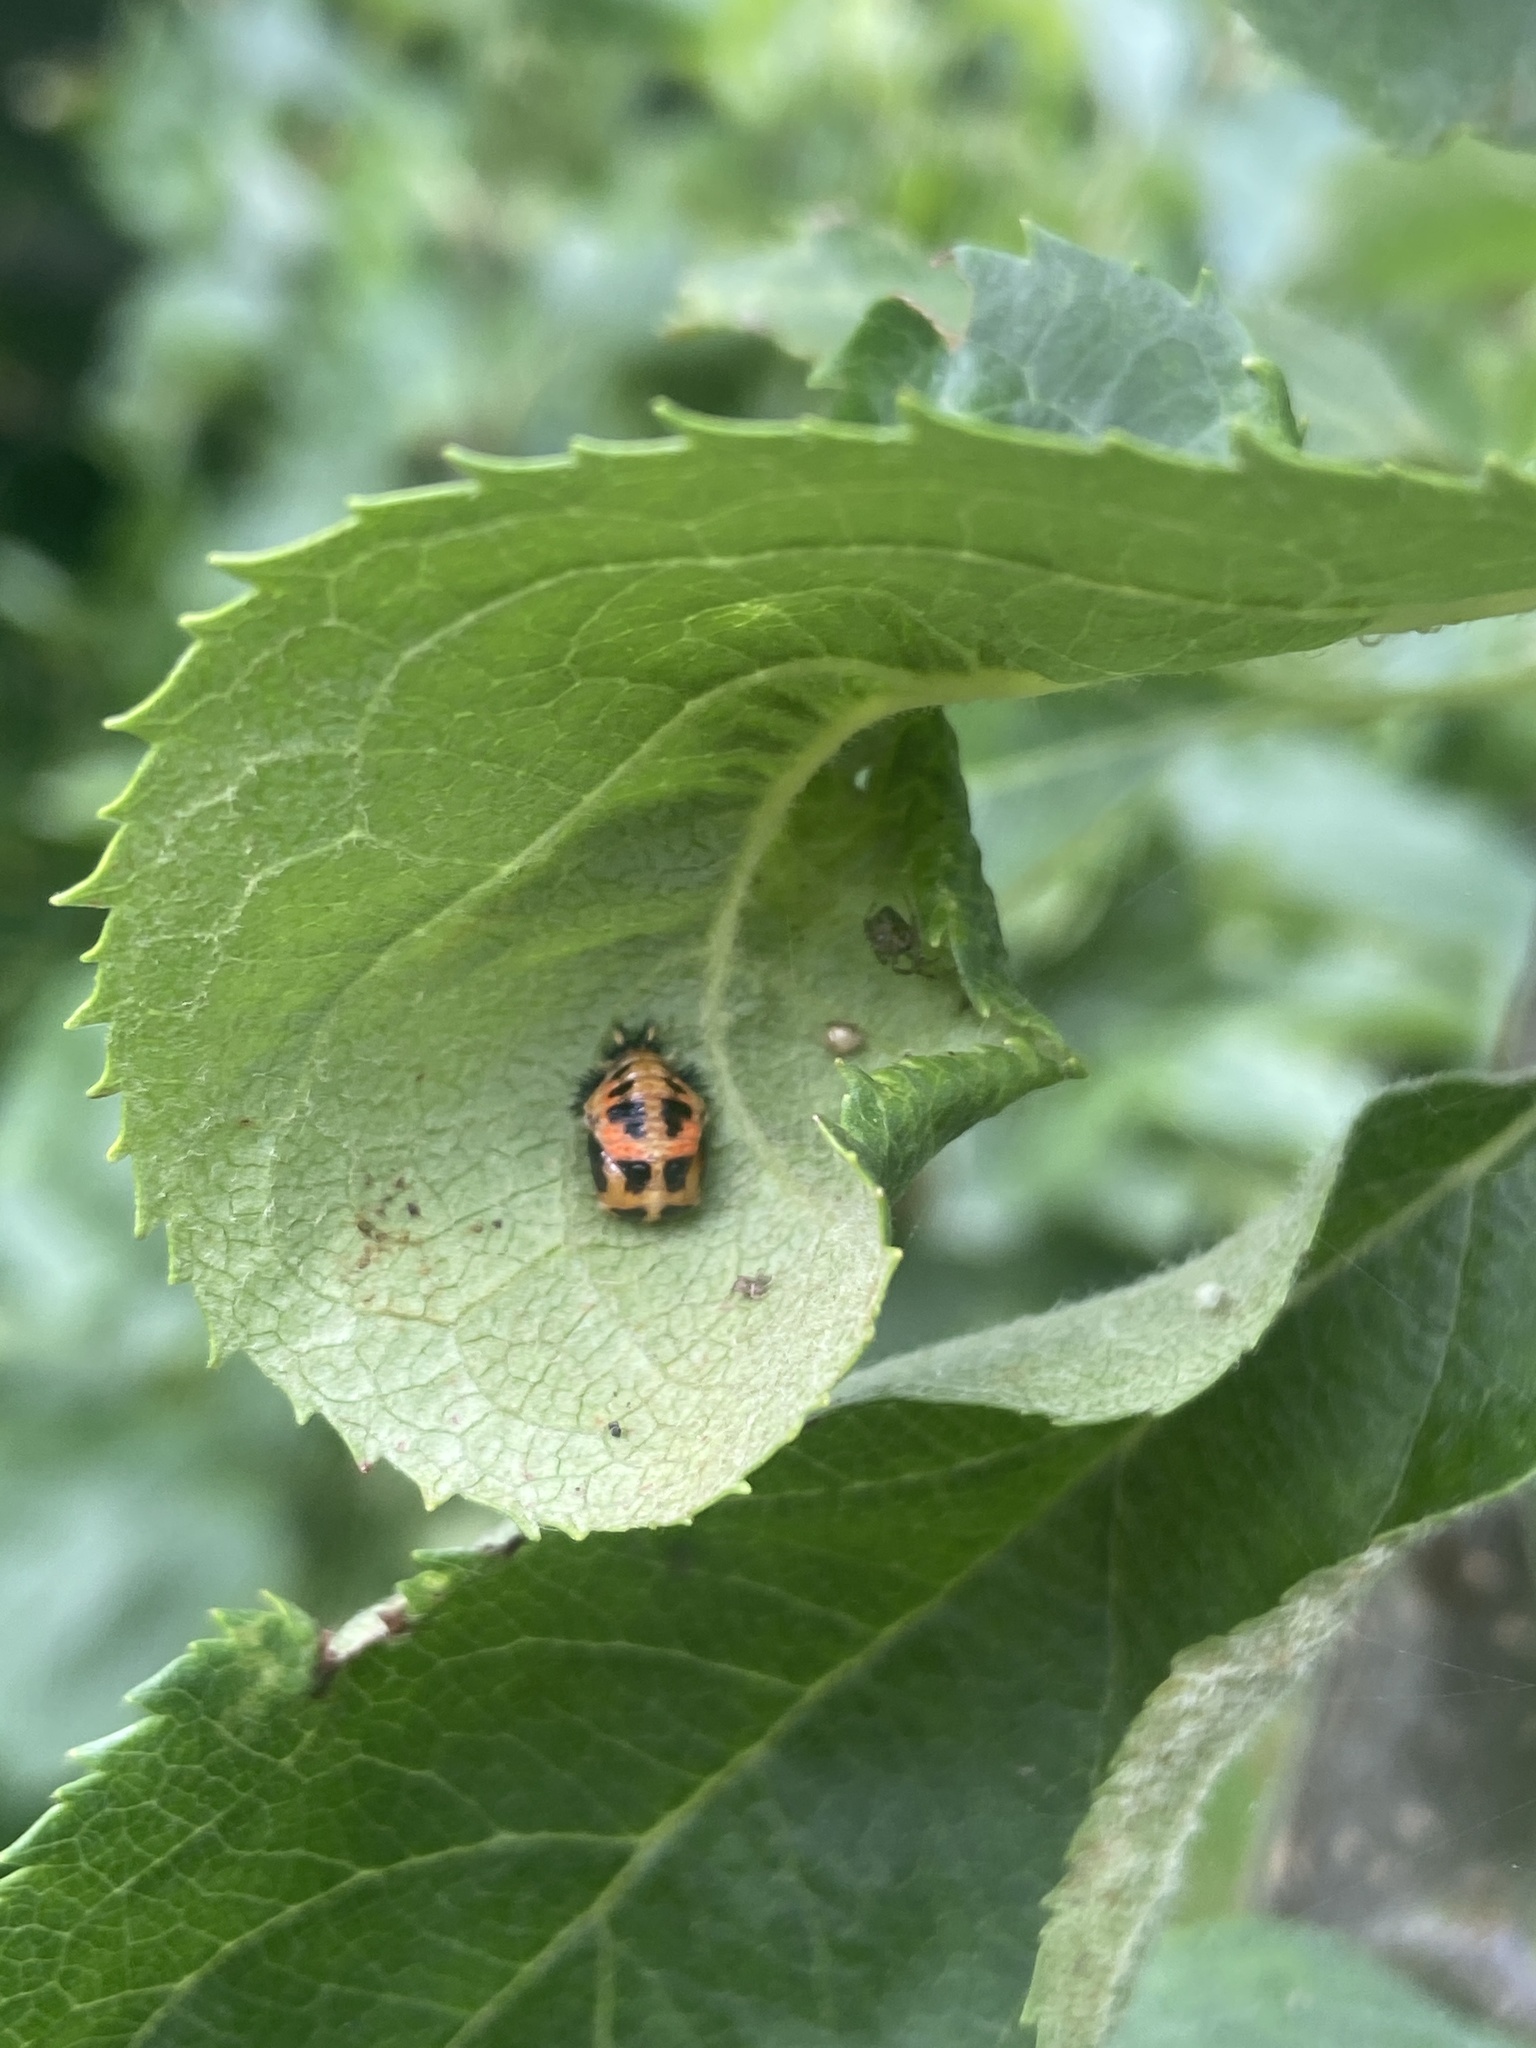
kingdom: Animalia
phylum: Arthropoda
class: Insecta
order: Coleoptera
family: Coccinellidae
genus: Harmonia
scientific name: Harmonia axyridis
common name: Harlequin ladybird
